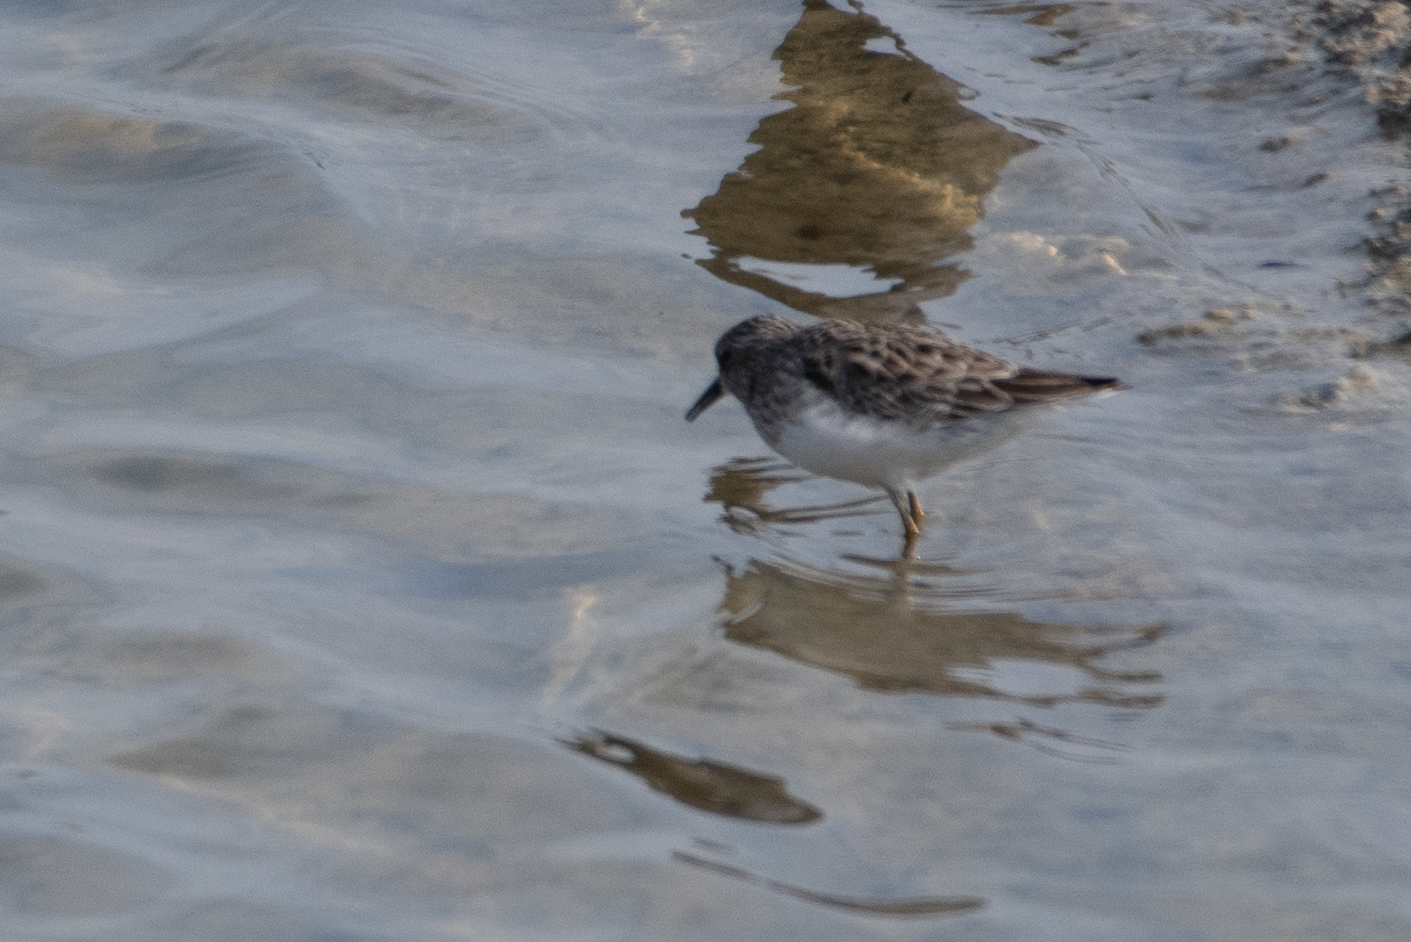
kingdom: Animalia
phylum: Chordata
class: Aves
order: Charadriiformes
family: Scolopacidae
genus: Calidris
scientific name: Calidris minutilla
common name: Least sandpiper
